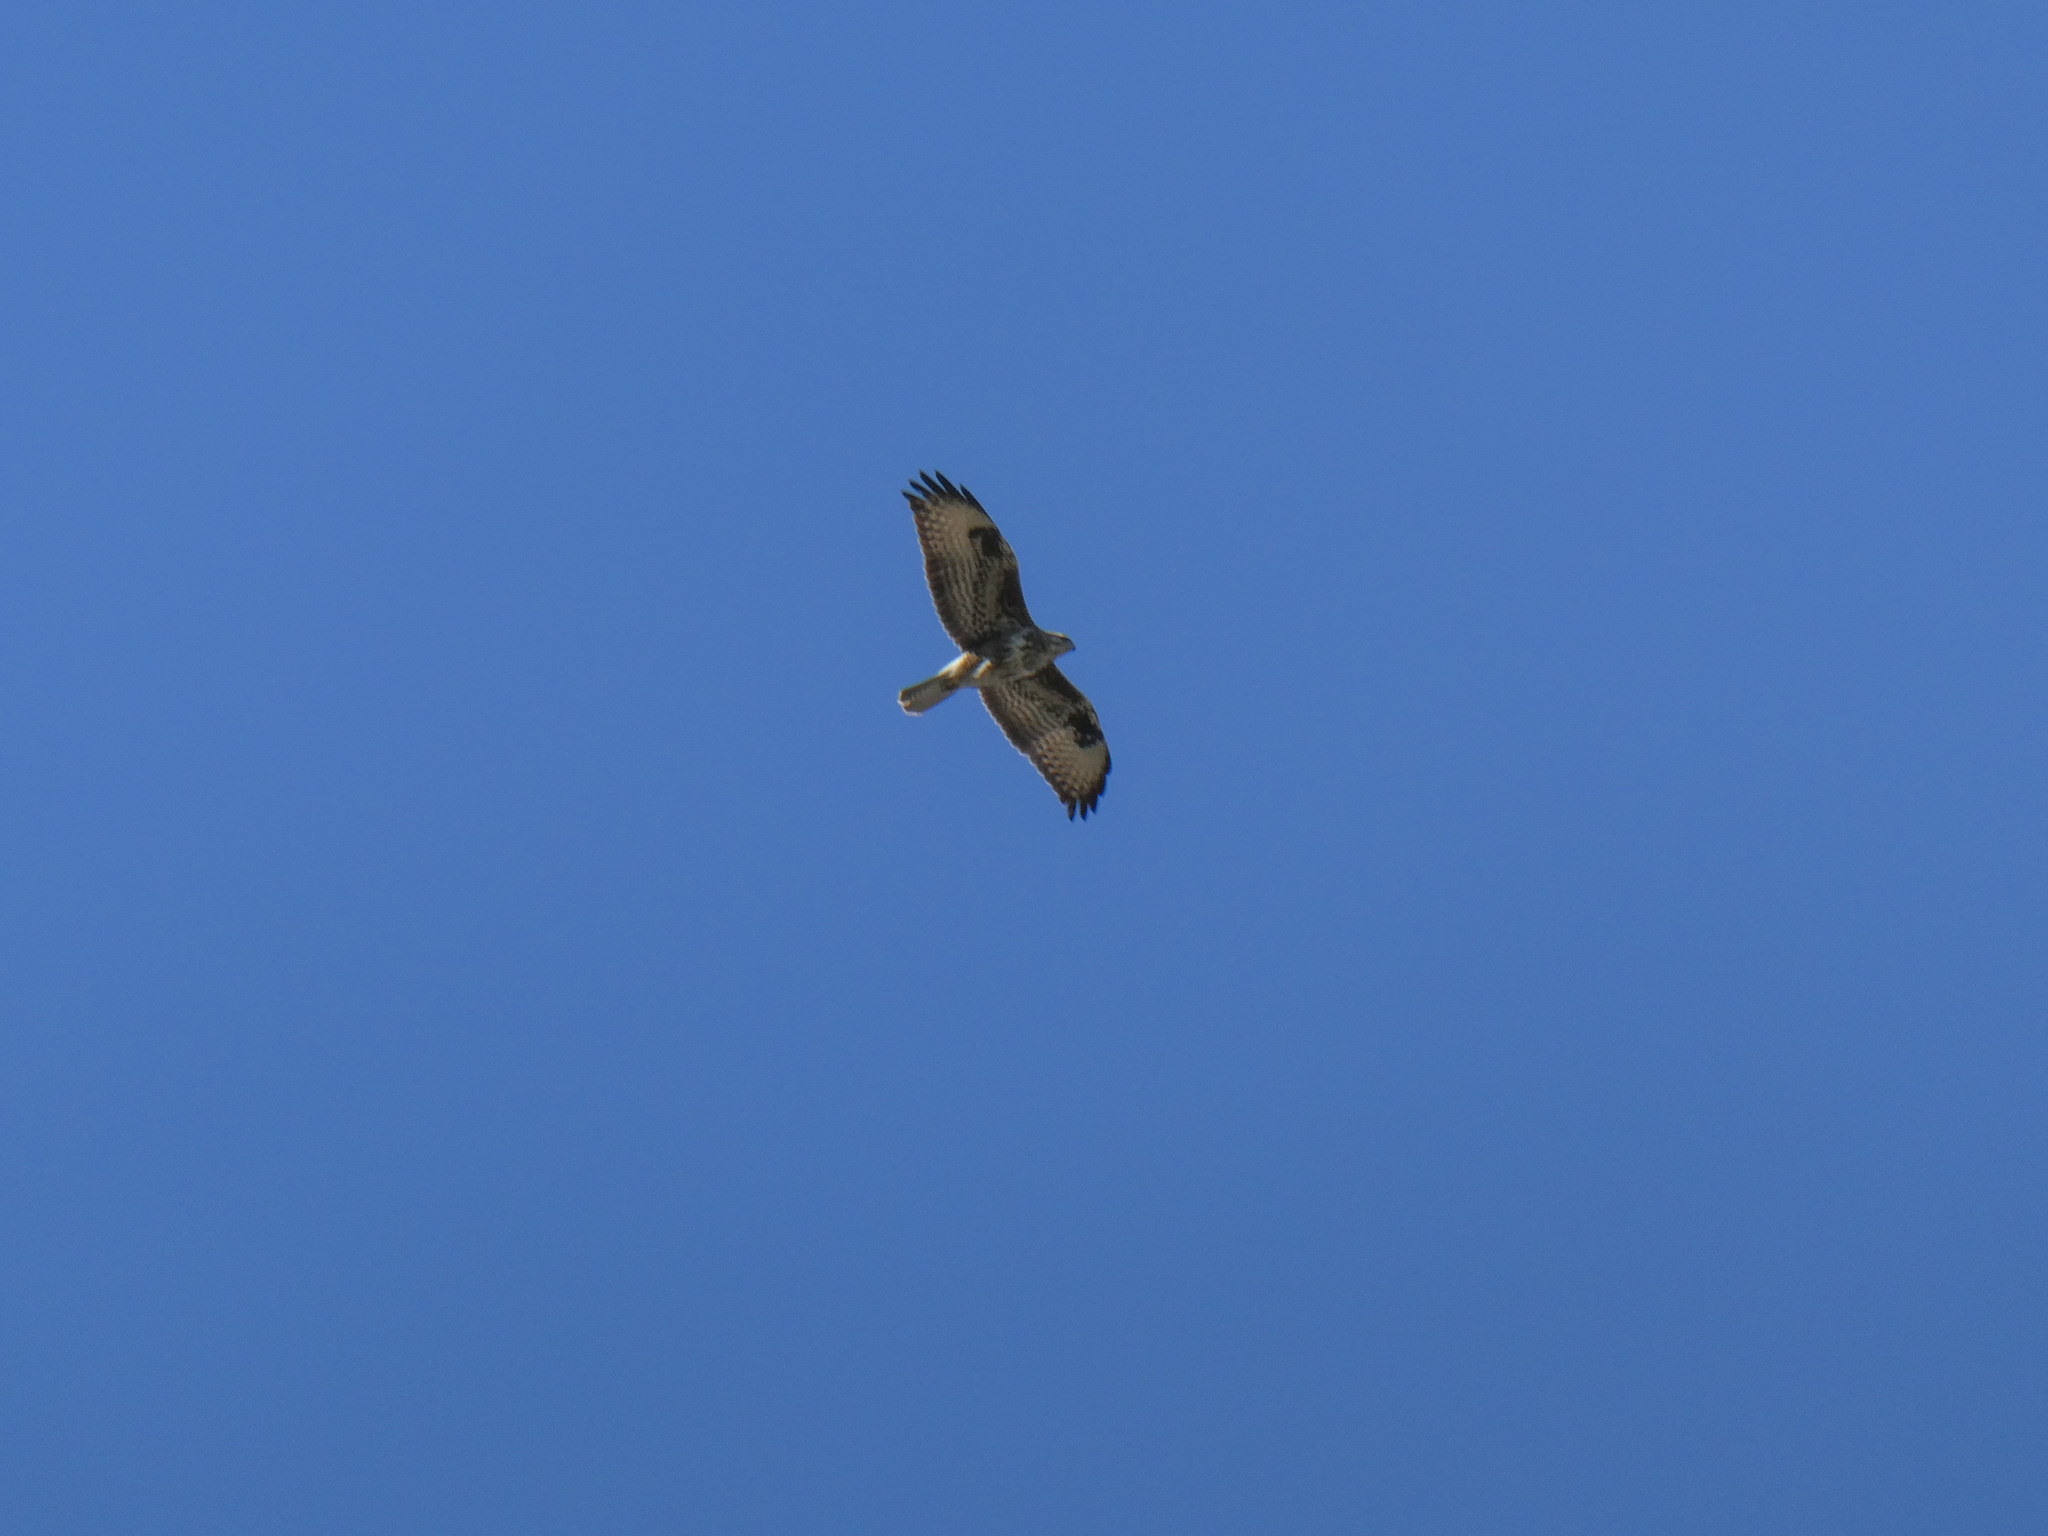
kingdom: Animalia
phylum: Chordata
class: Aves
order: Accipitriformes
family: Accipitridae
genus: Buteo
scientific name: Buteo buteo
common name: Common buzzard
